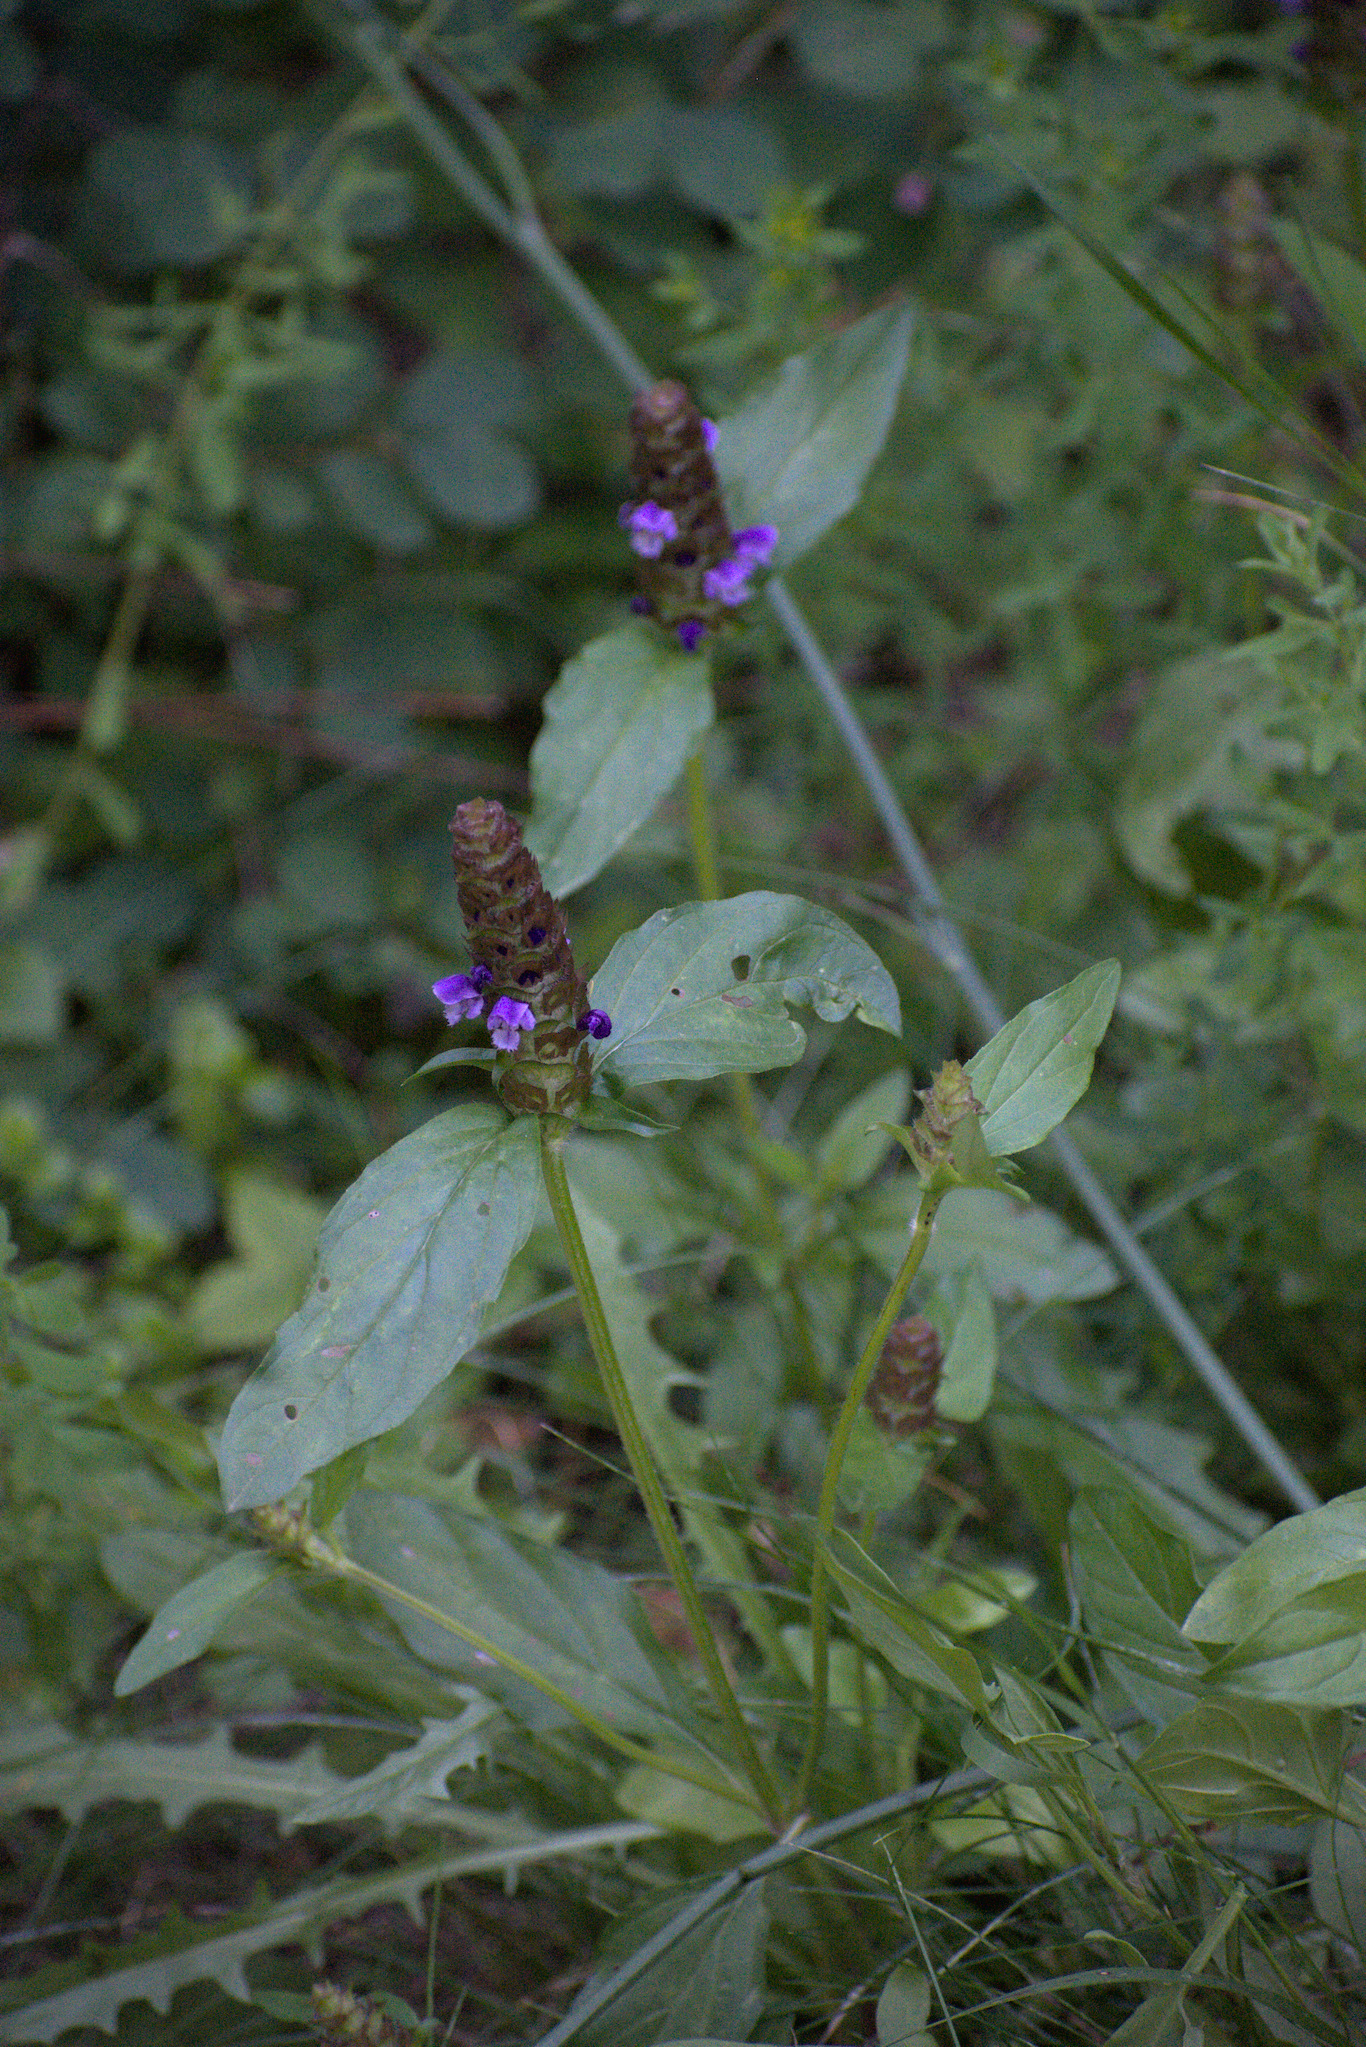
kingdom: Plantae
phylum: Tracheophyta
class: Magnoliopsida
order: Lamiales
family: Lamiaceae
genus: Prunella
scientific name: Prunella vulgaris
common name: Heal-all
